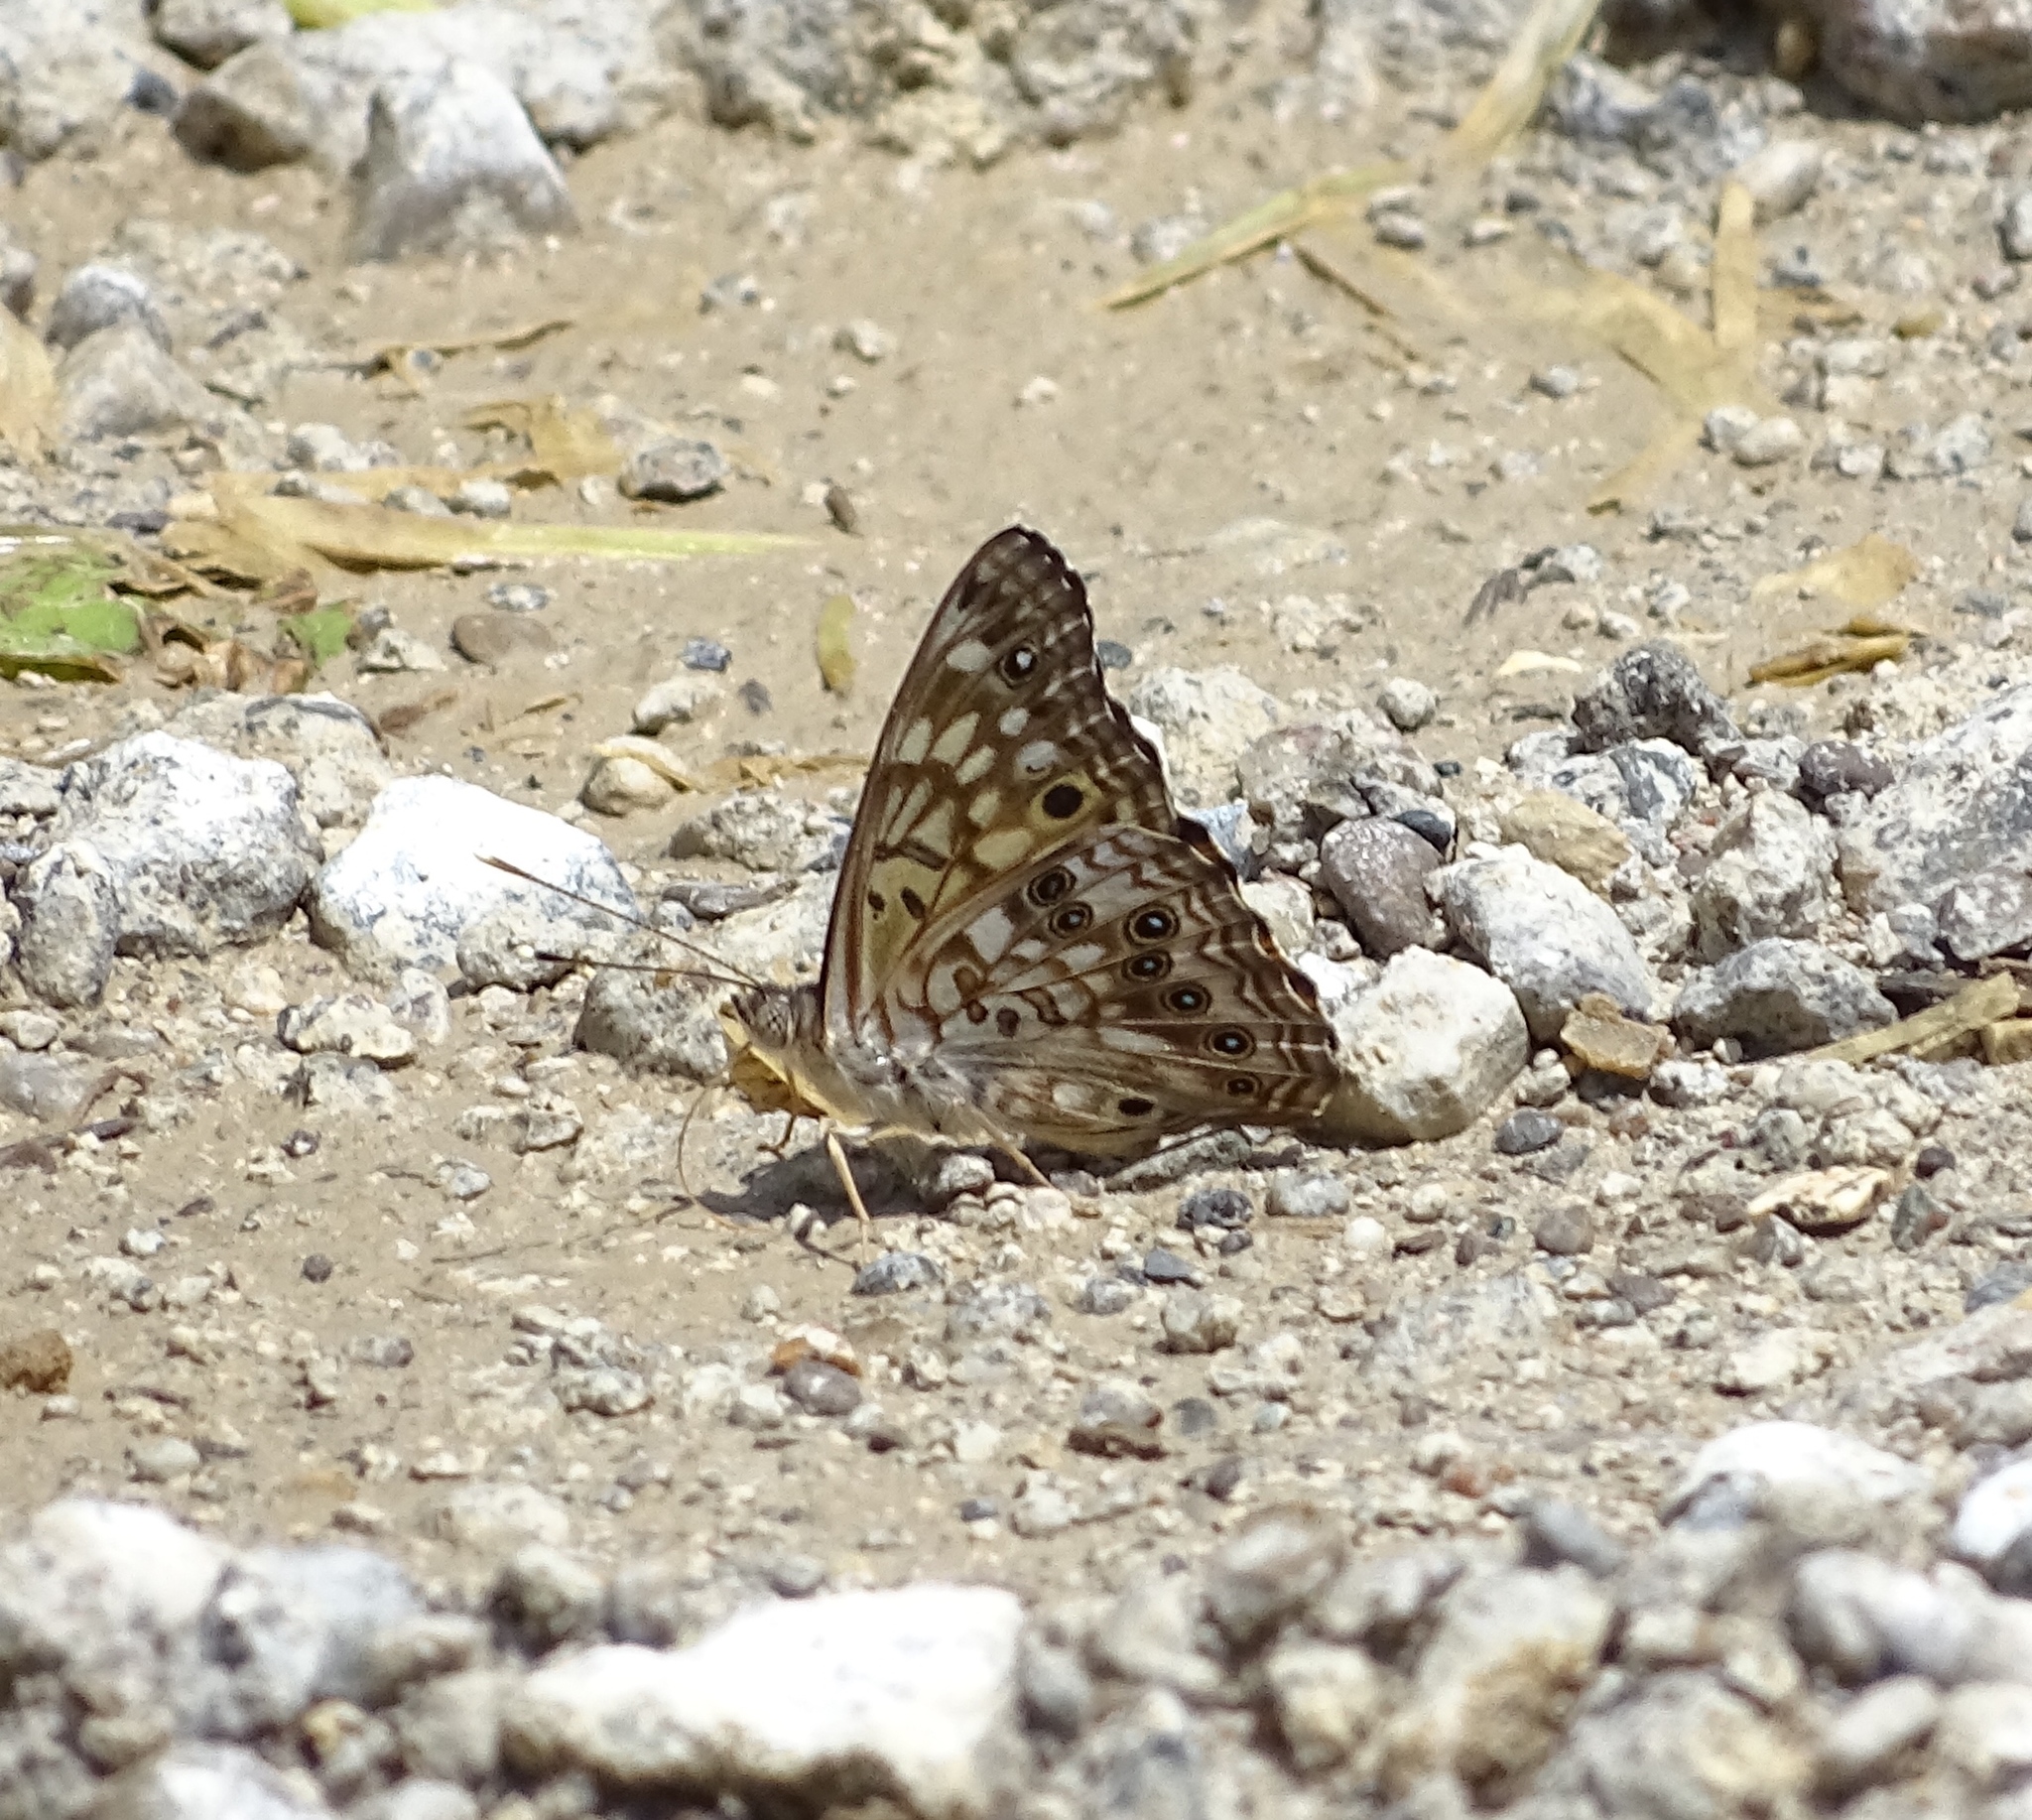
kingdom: Animalia
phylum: Arthropoda
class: Insecta
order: Lepidoptera
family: Nymphalidae
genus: Asterocampa
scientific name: Asterocampa celtis
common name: Hackberry emperor
